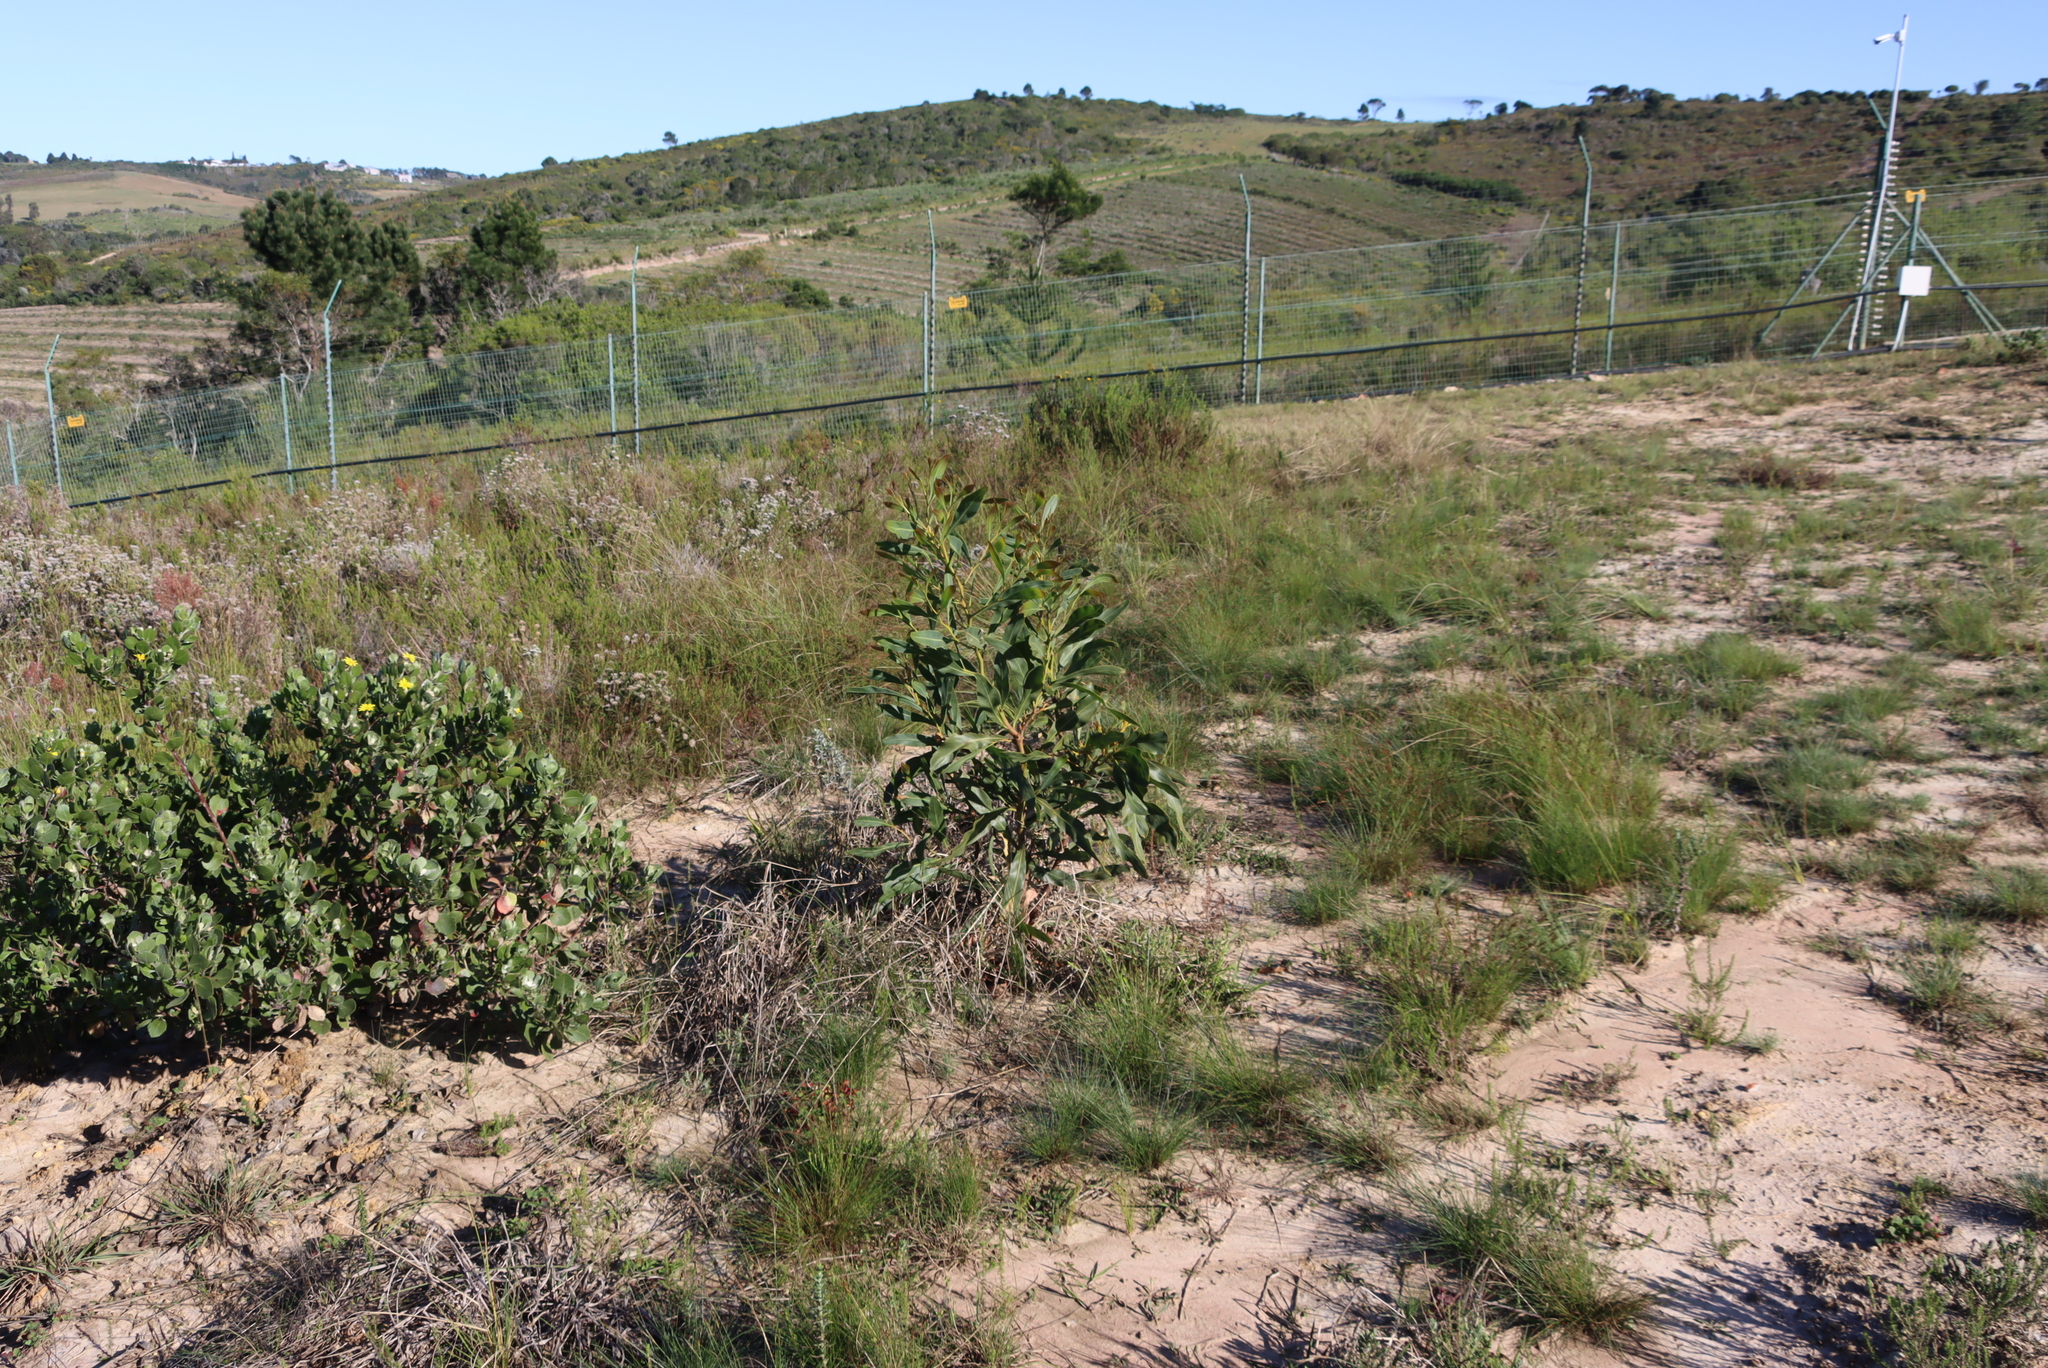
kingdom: Plantae
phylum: Tracheophyta
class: Magnoliopsida
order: Fabales
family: Fabaceae
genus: Acacia
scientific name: Acacia saligna
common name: Orange wattle
